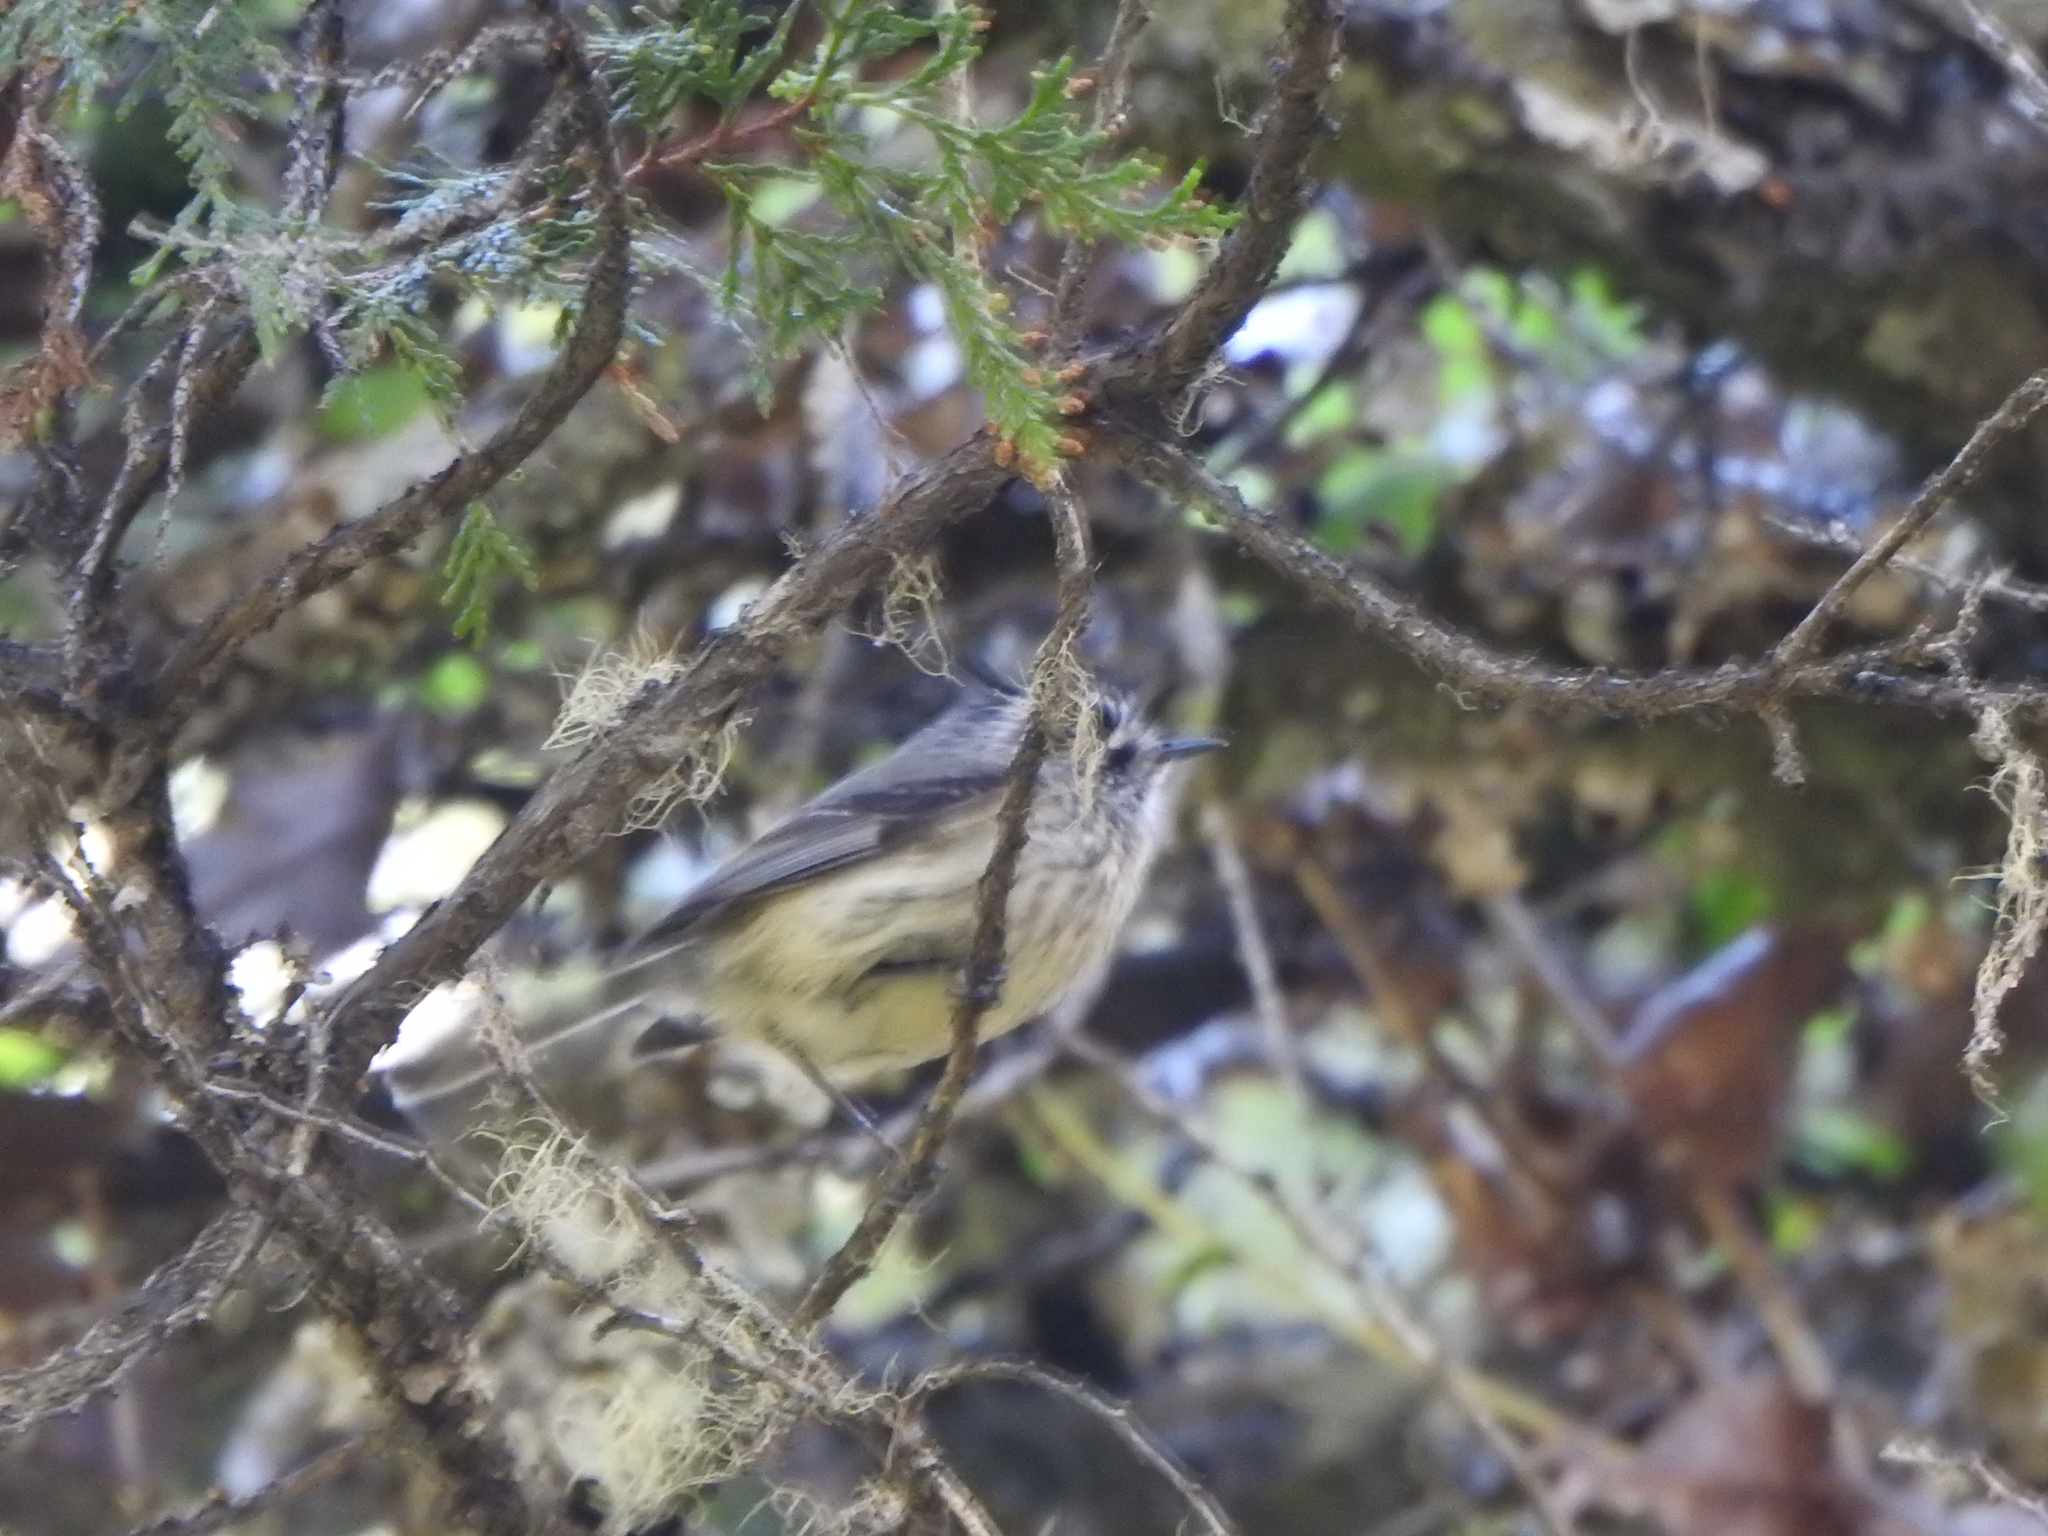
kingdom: Animalia
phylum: Chordata
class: Aves
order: Passeriformes
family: Tyrannidae
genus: Anairetes
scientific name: Anairetes parulus
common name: Tufted tit-tyrant
